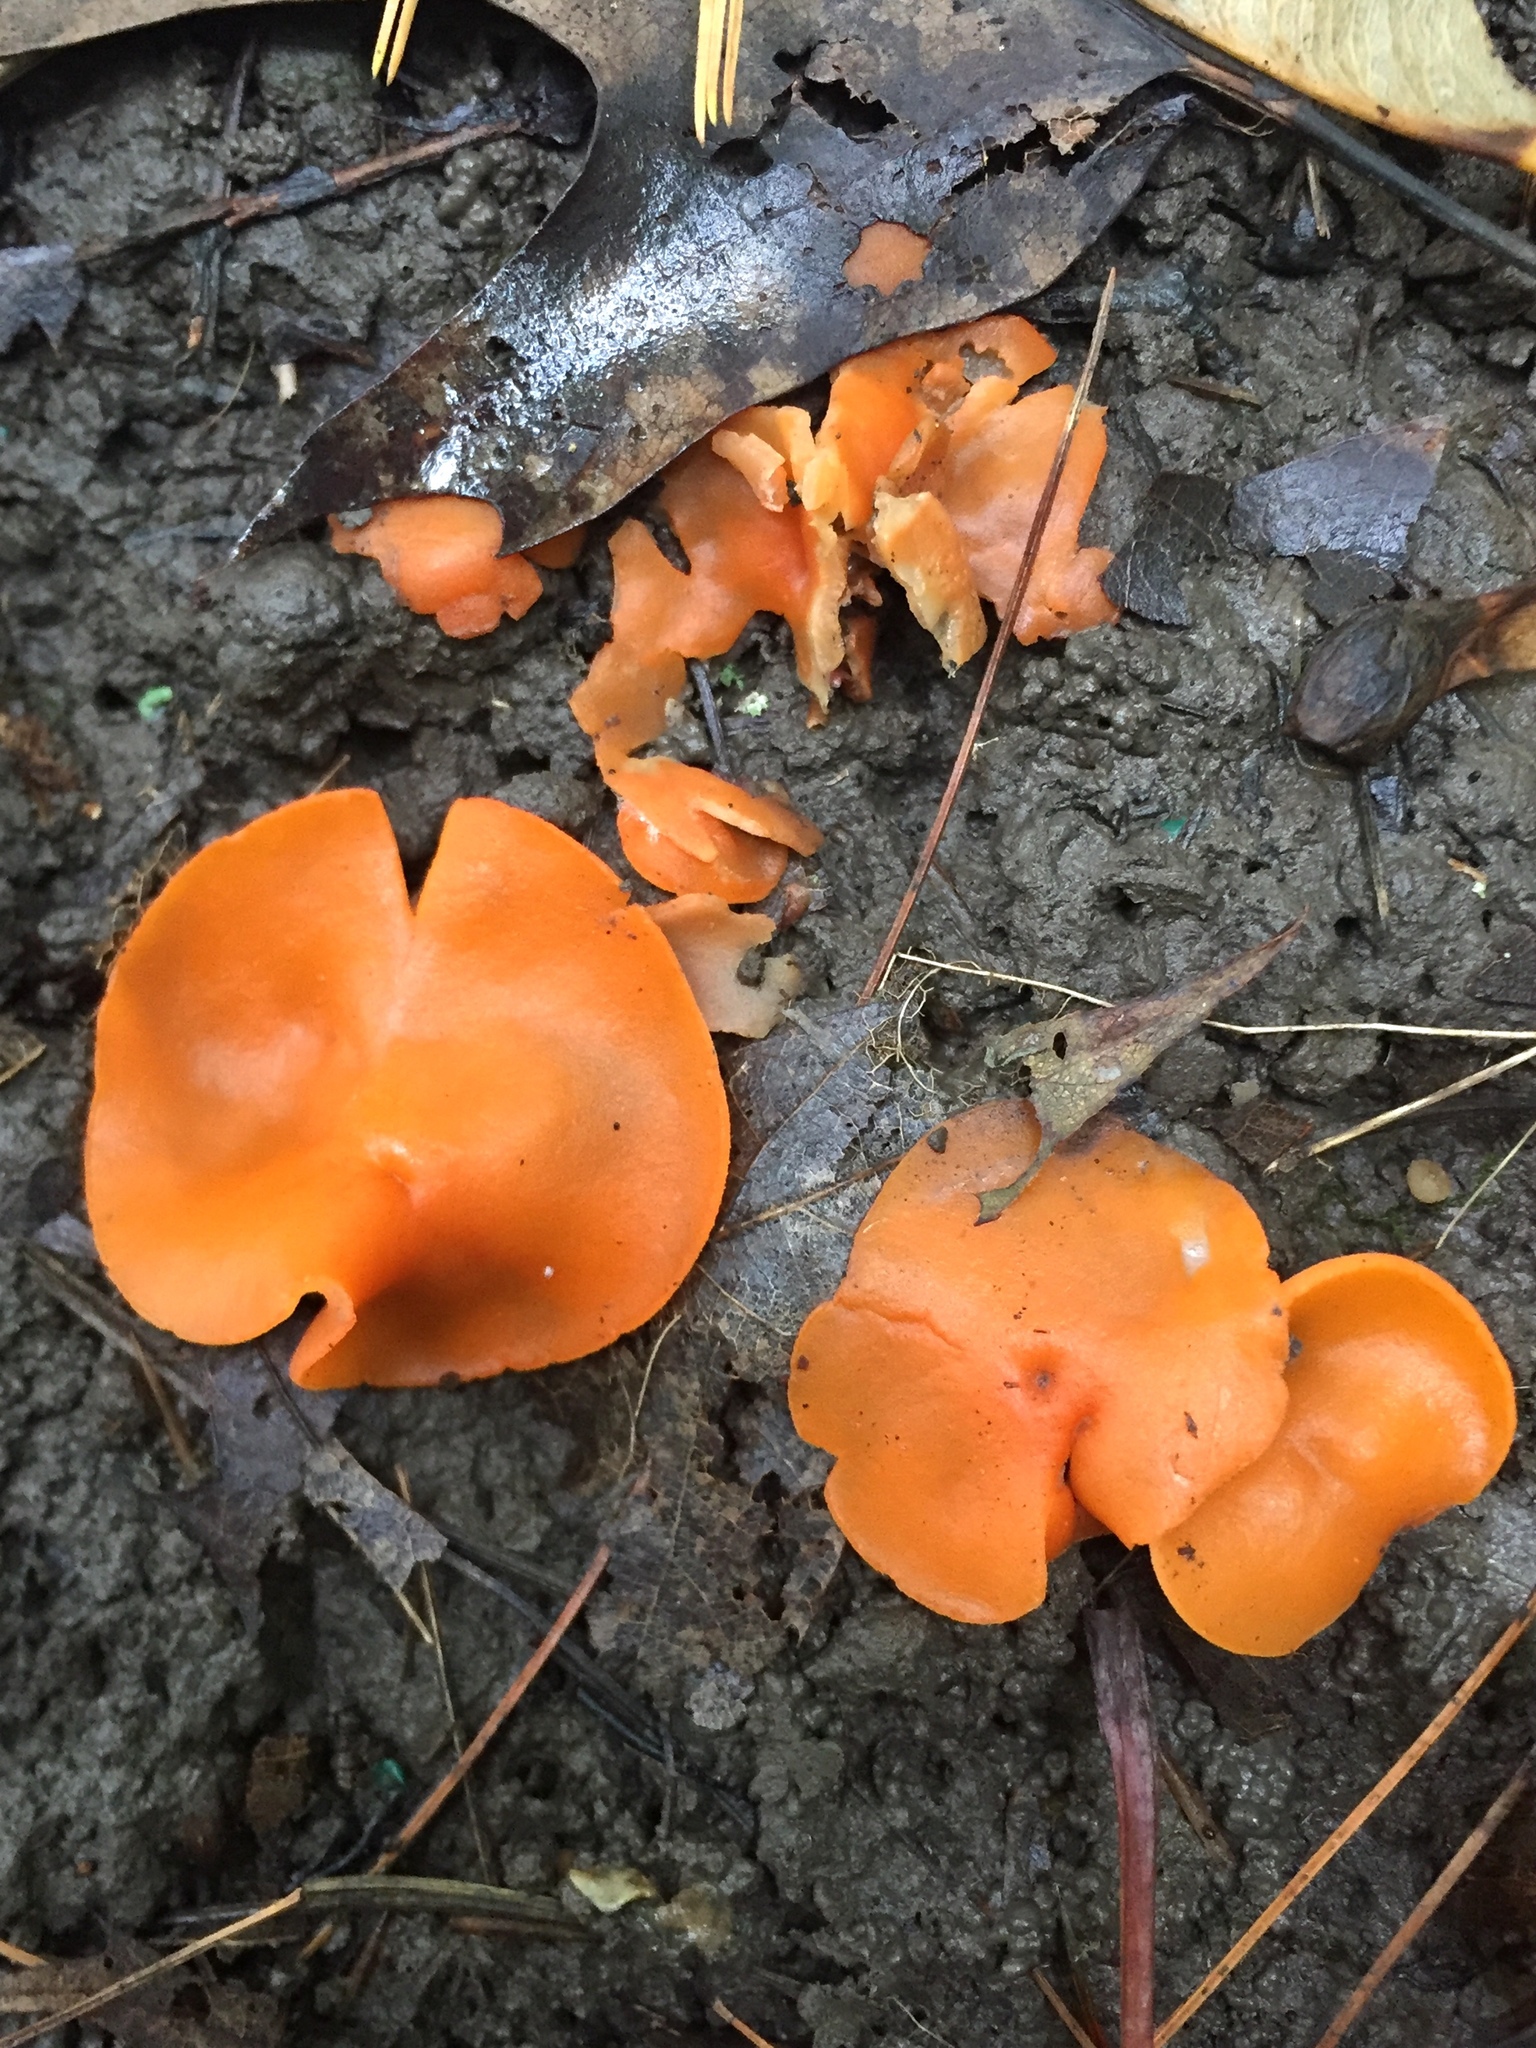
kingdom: Fungi
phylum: Ascomycota
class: Pezizomycetes
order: Pezizales
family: Pyronemataceae
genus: Aleuria
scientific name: Aleuria aurantia
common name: Orange peel fungus
